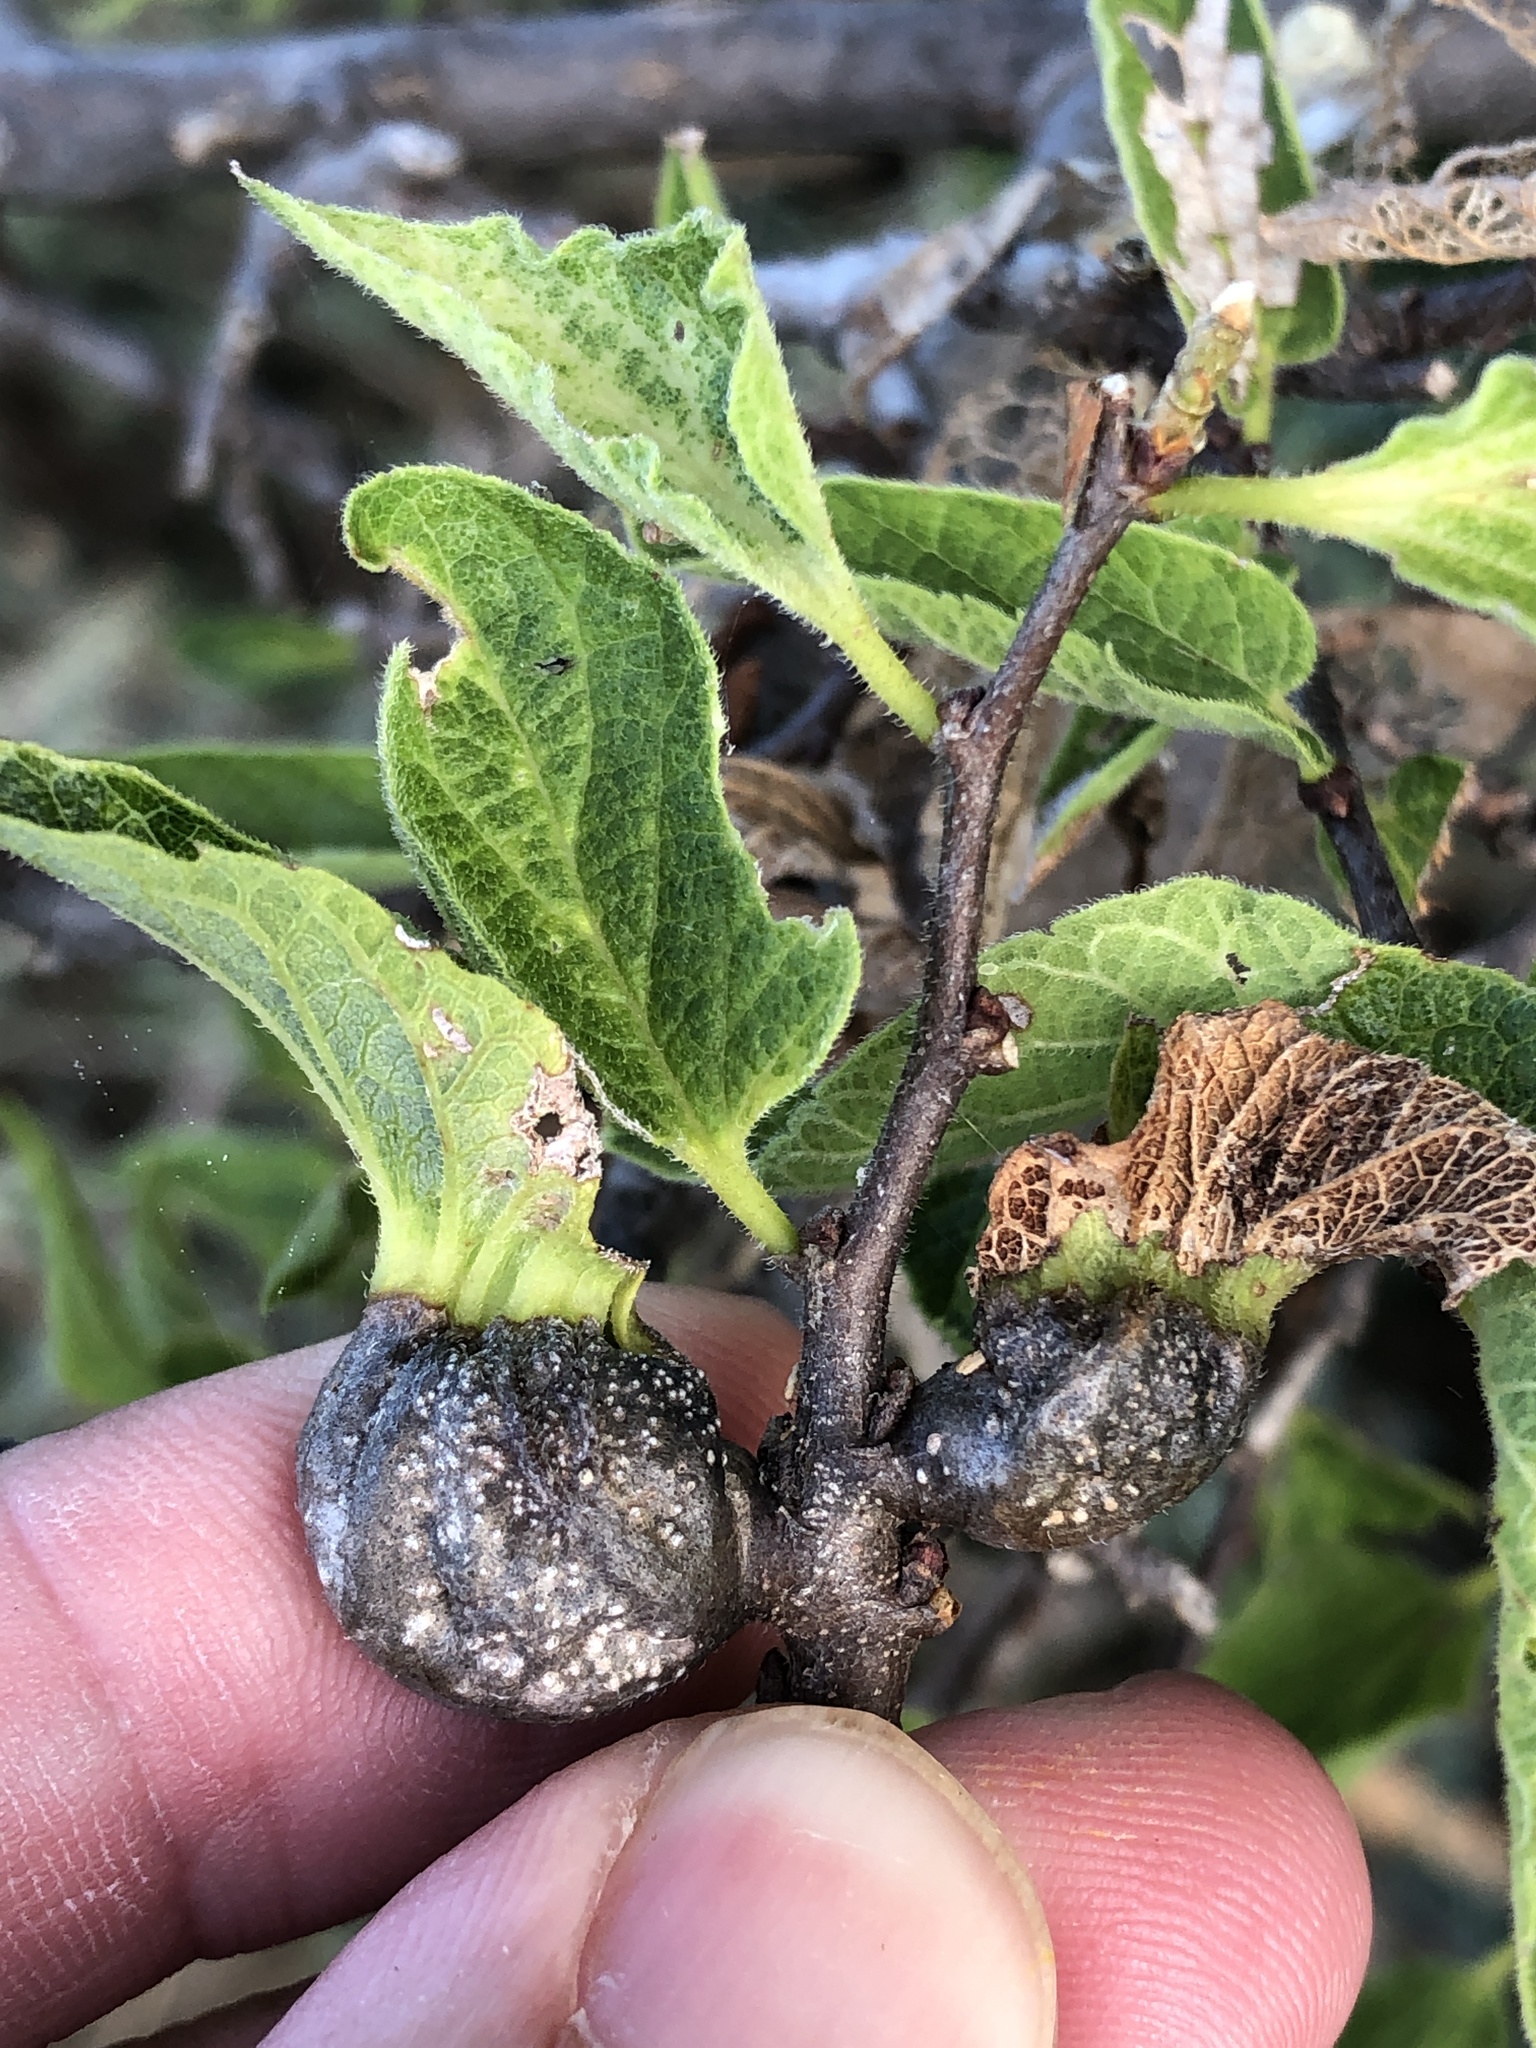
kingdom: Animalia
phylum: Arthropoda
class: Insecta
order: Hemiptera
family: Aphalaridae
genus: Pachypsylla
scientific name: Pachypsylla venusta
